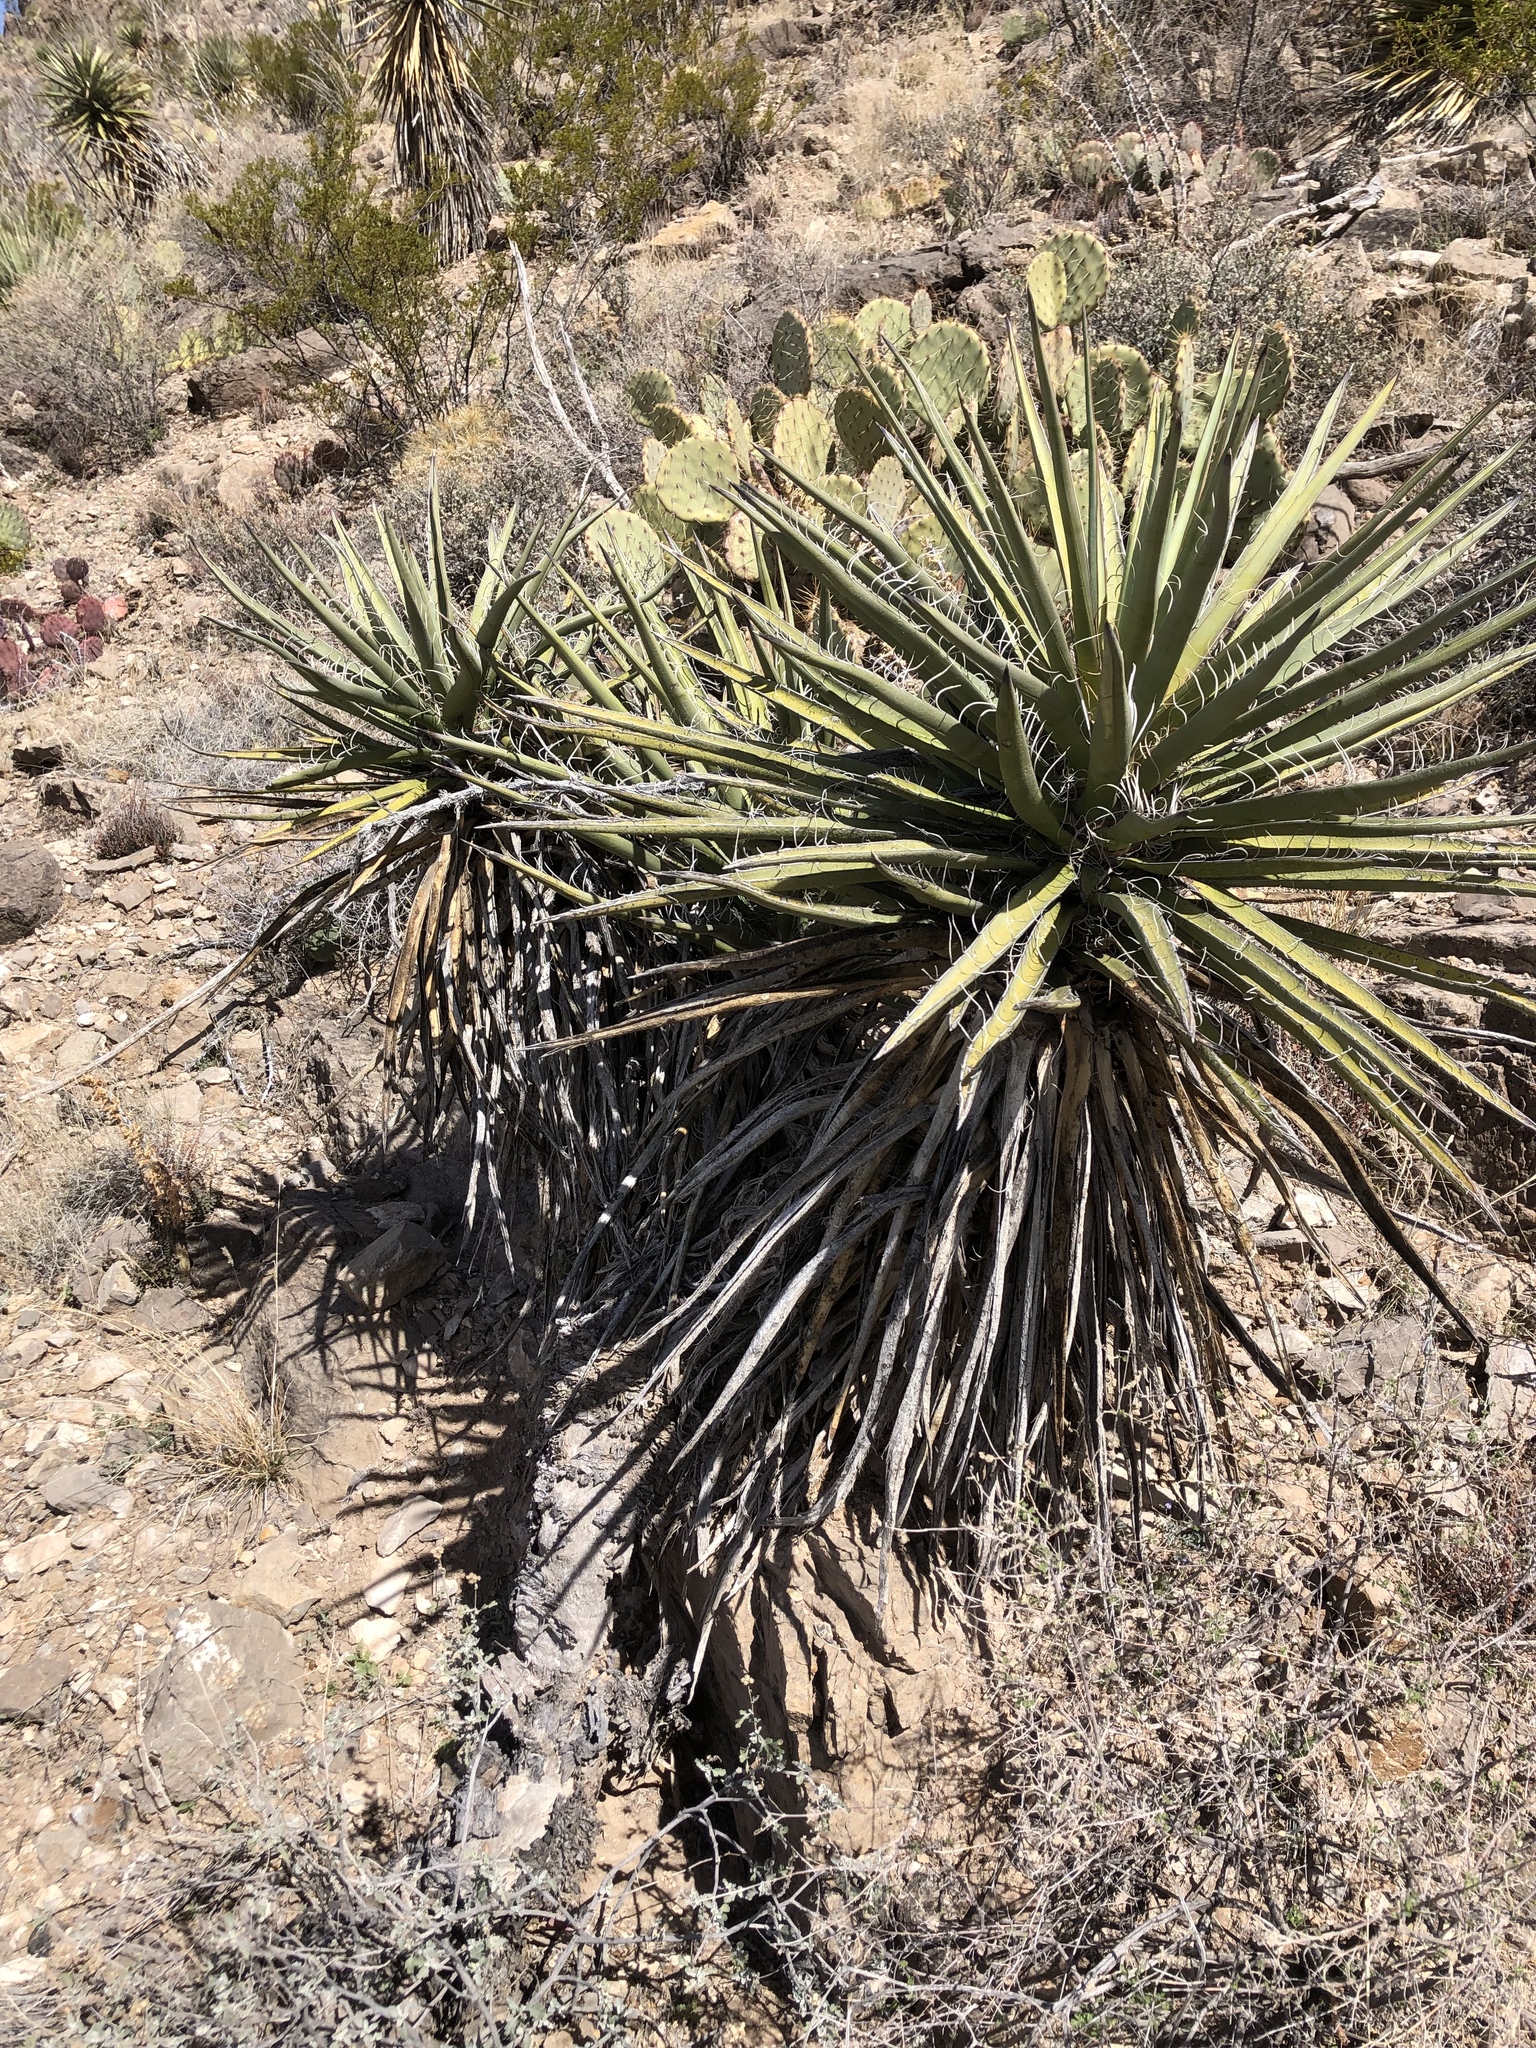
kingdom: Plantae
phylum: Tracheophyta
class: Liliopsida
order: Asparagales
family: Asparagaceae
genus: Yucca
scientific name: Yucca treculiana
